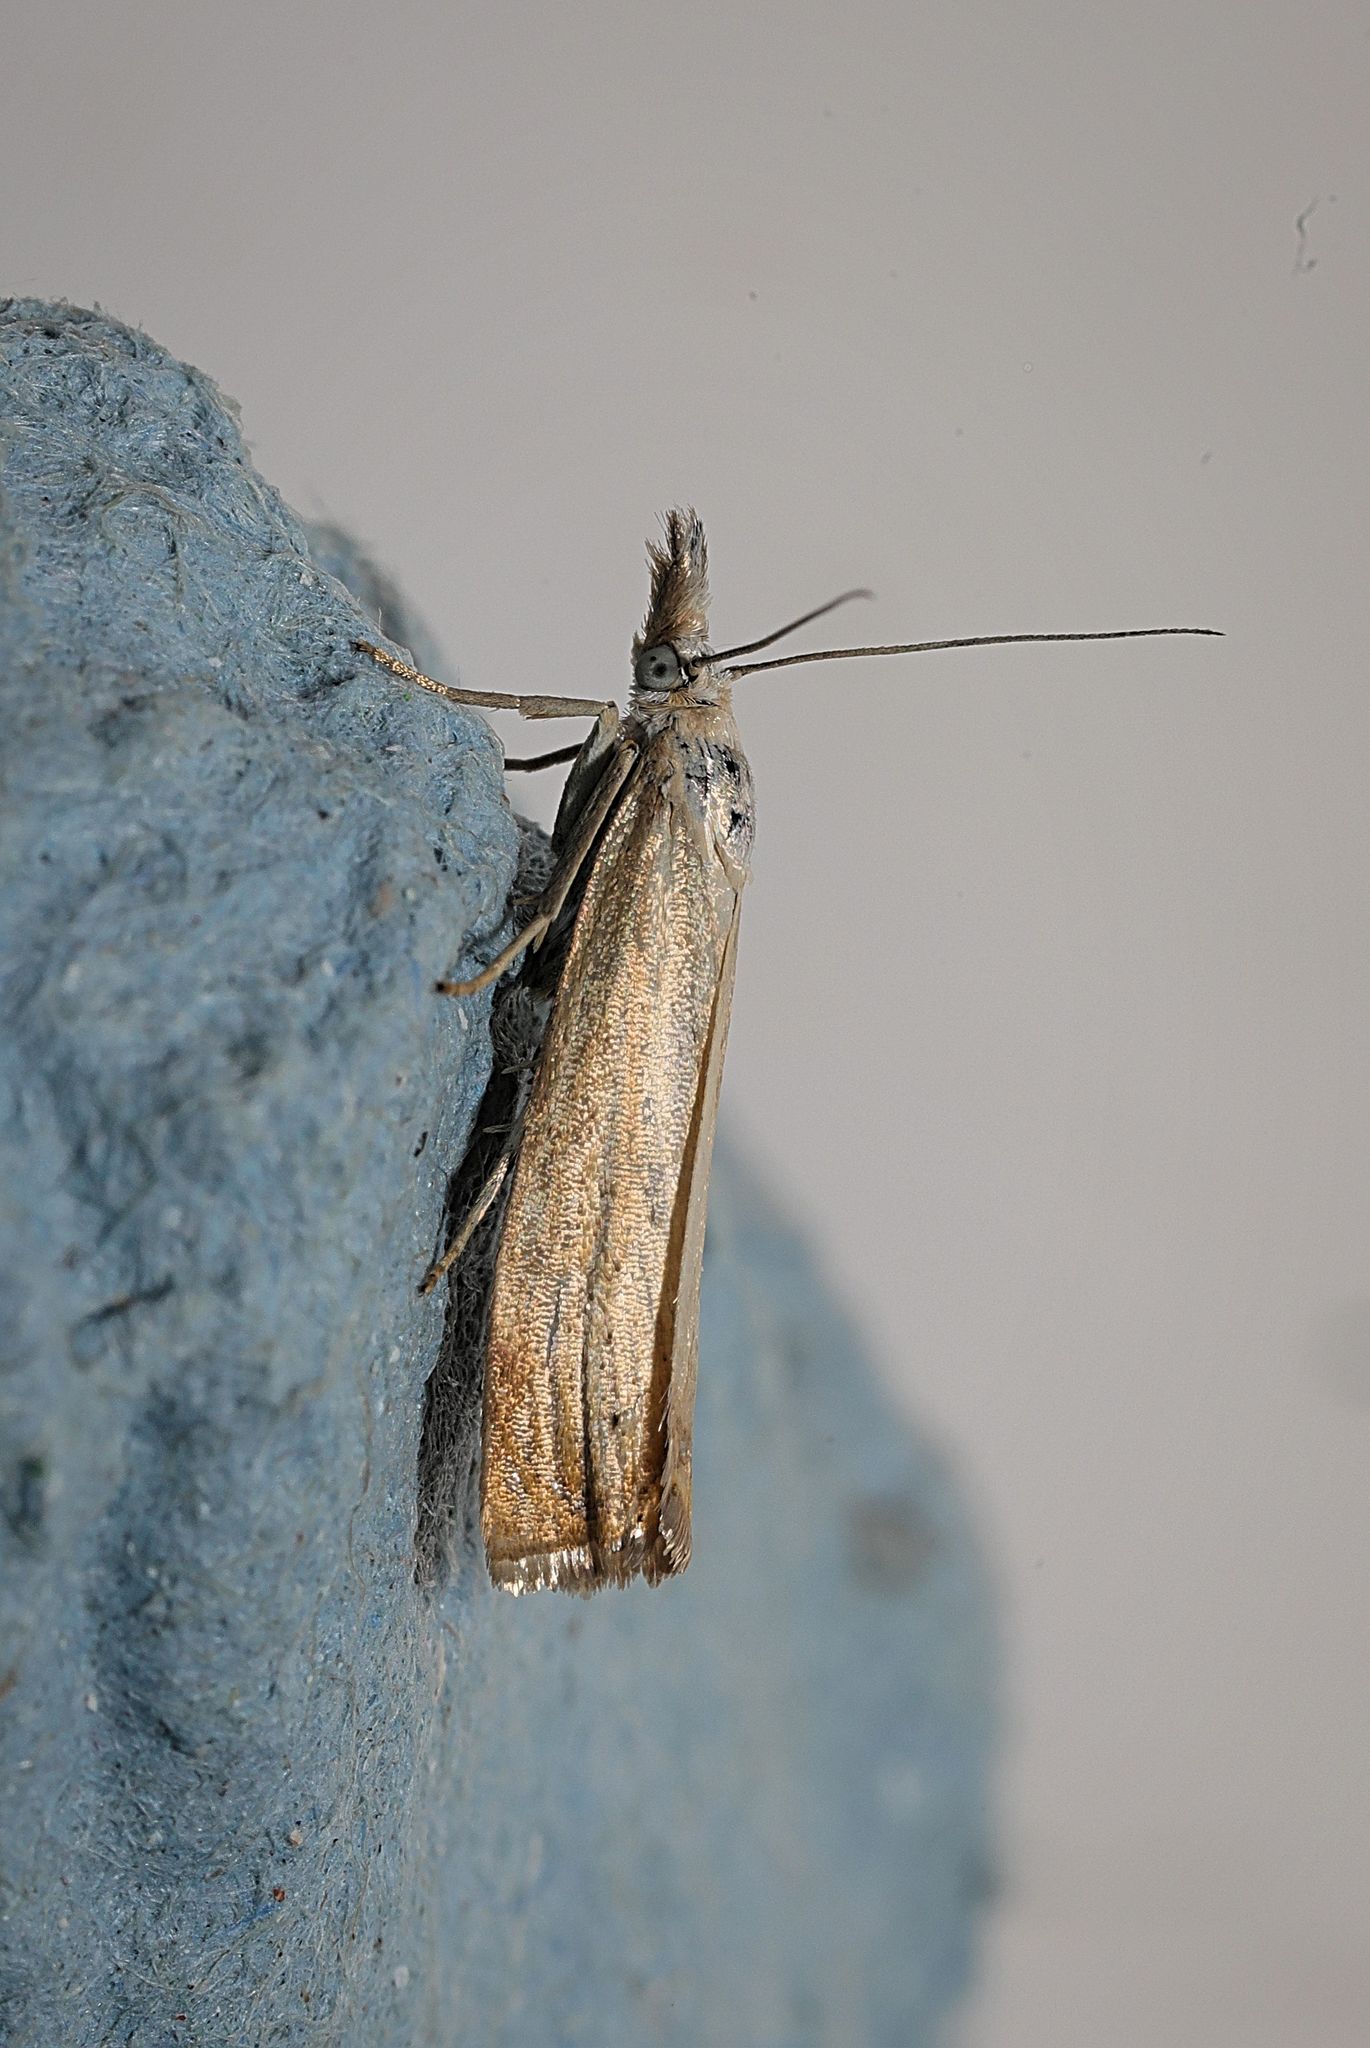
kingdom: Animalia
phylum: Arthropoda
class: Insecta
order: Lepidoptera
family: Crambidae
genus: Chrysoteuchia
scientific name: Chrysoteuchia culmella
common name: Garden grass-veneer
